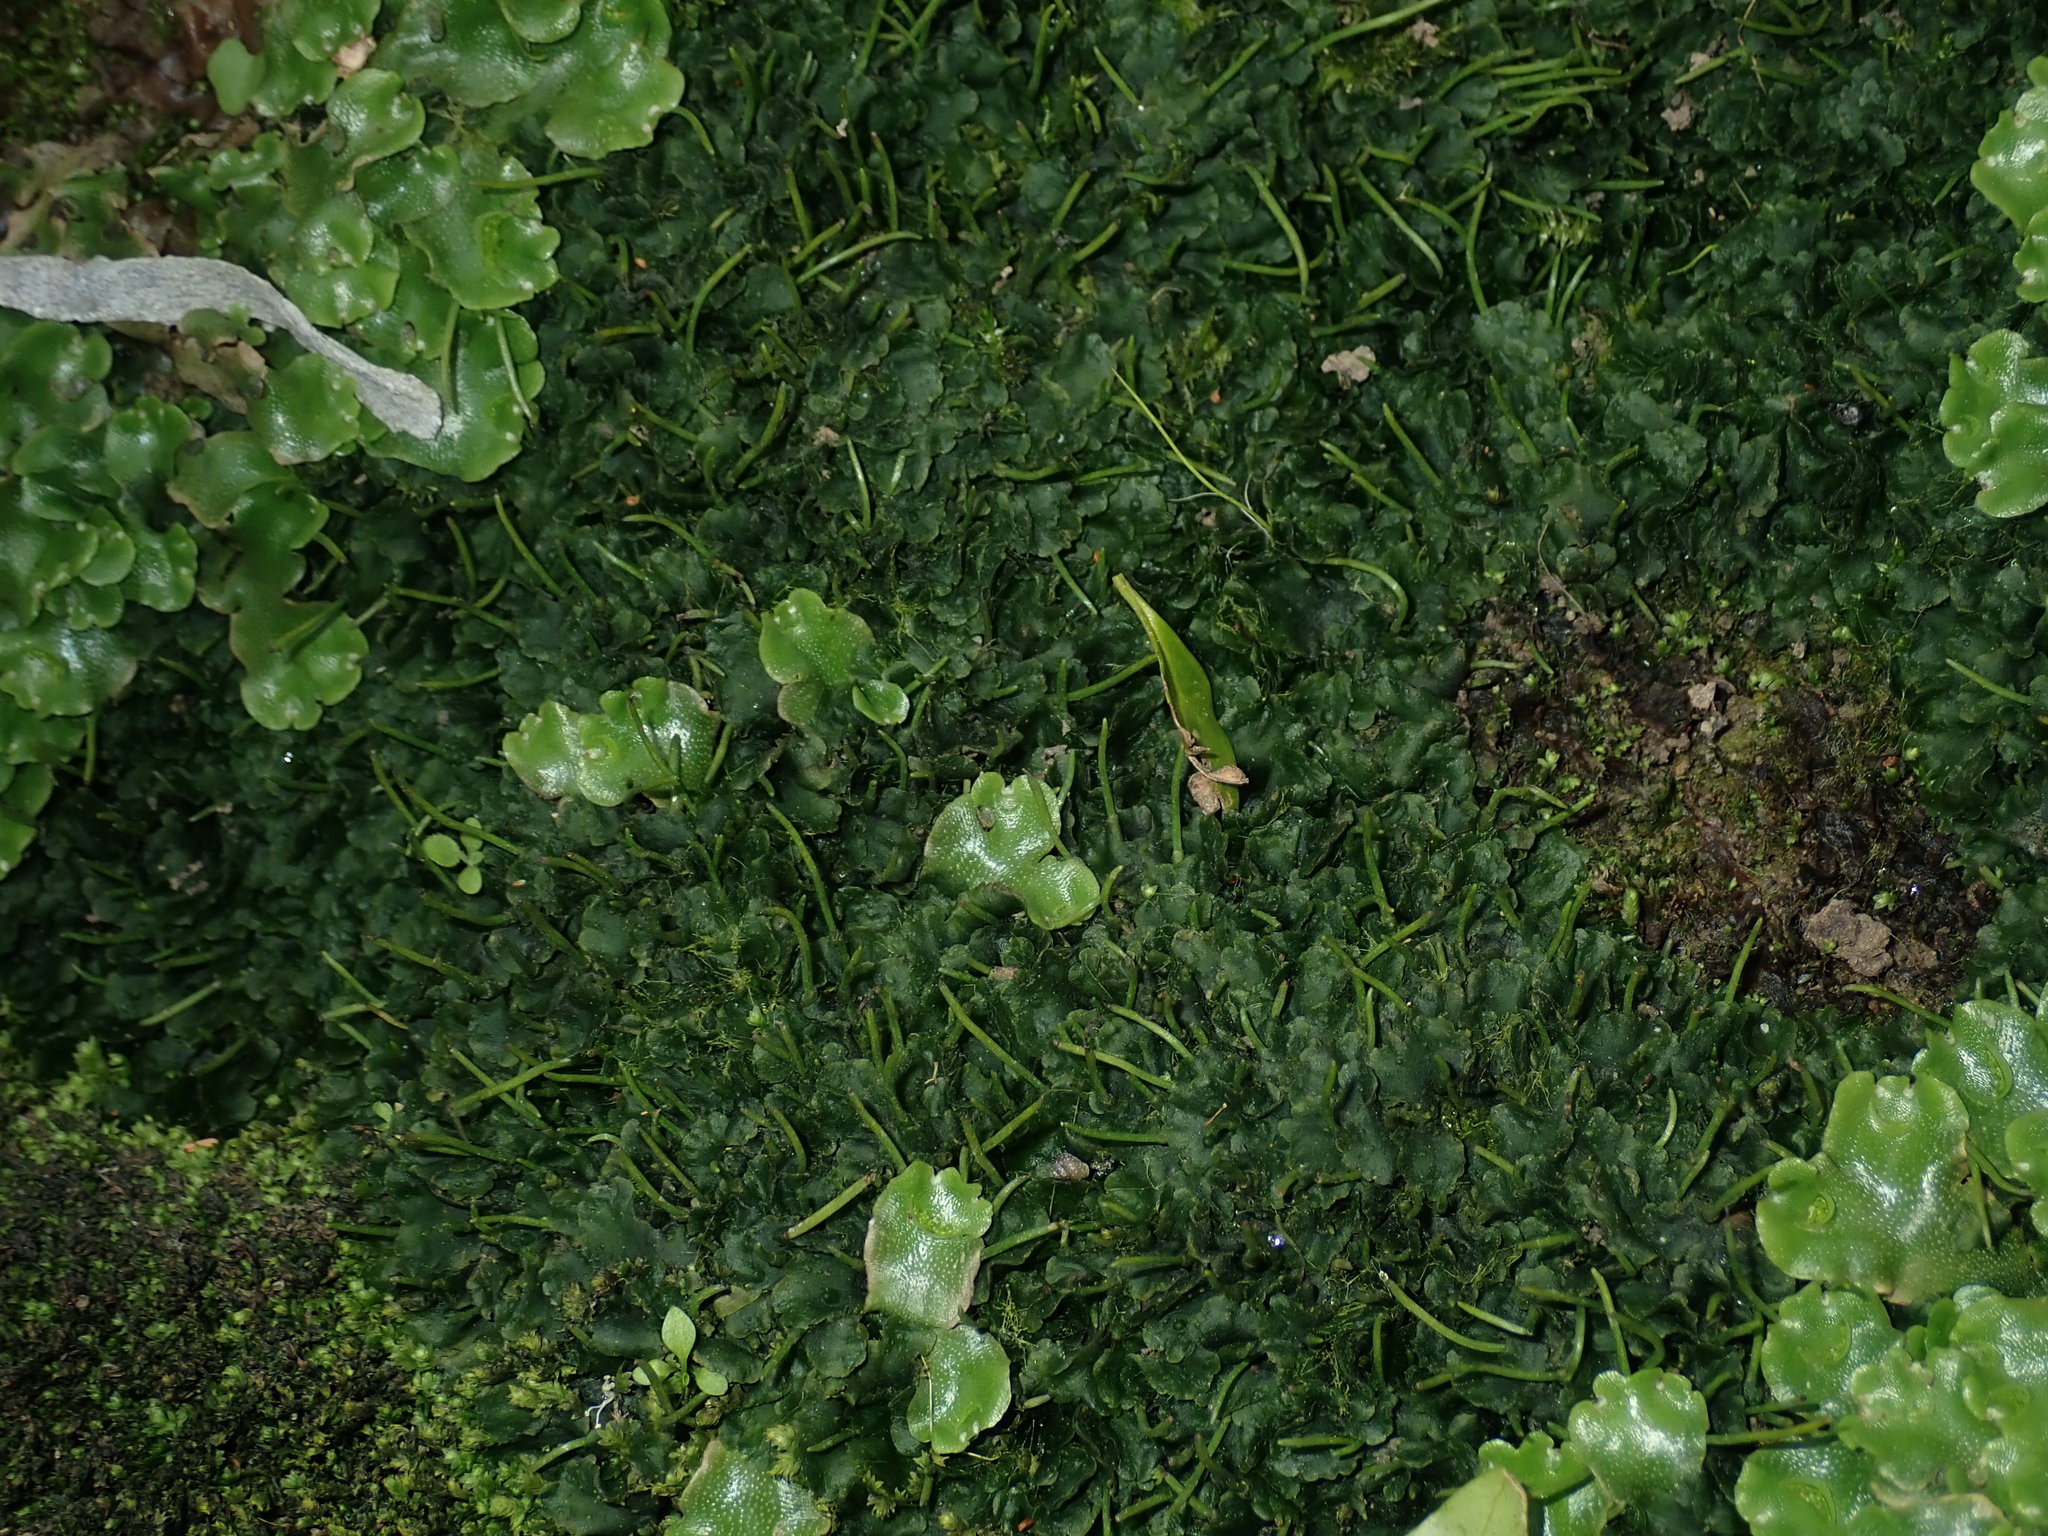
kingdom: Plantae
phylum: Anthocerotophyta
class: Anthocerotopsida
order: Notothyladales
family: Notothyladaceae
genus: Phaeoceros
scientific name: Phaeoceros carolinianus
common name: Carolina hornwort
